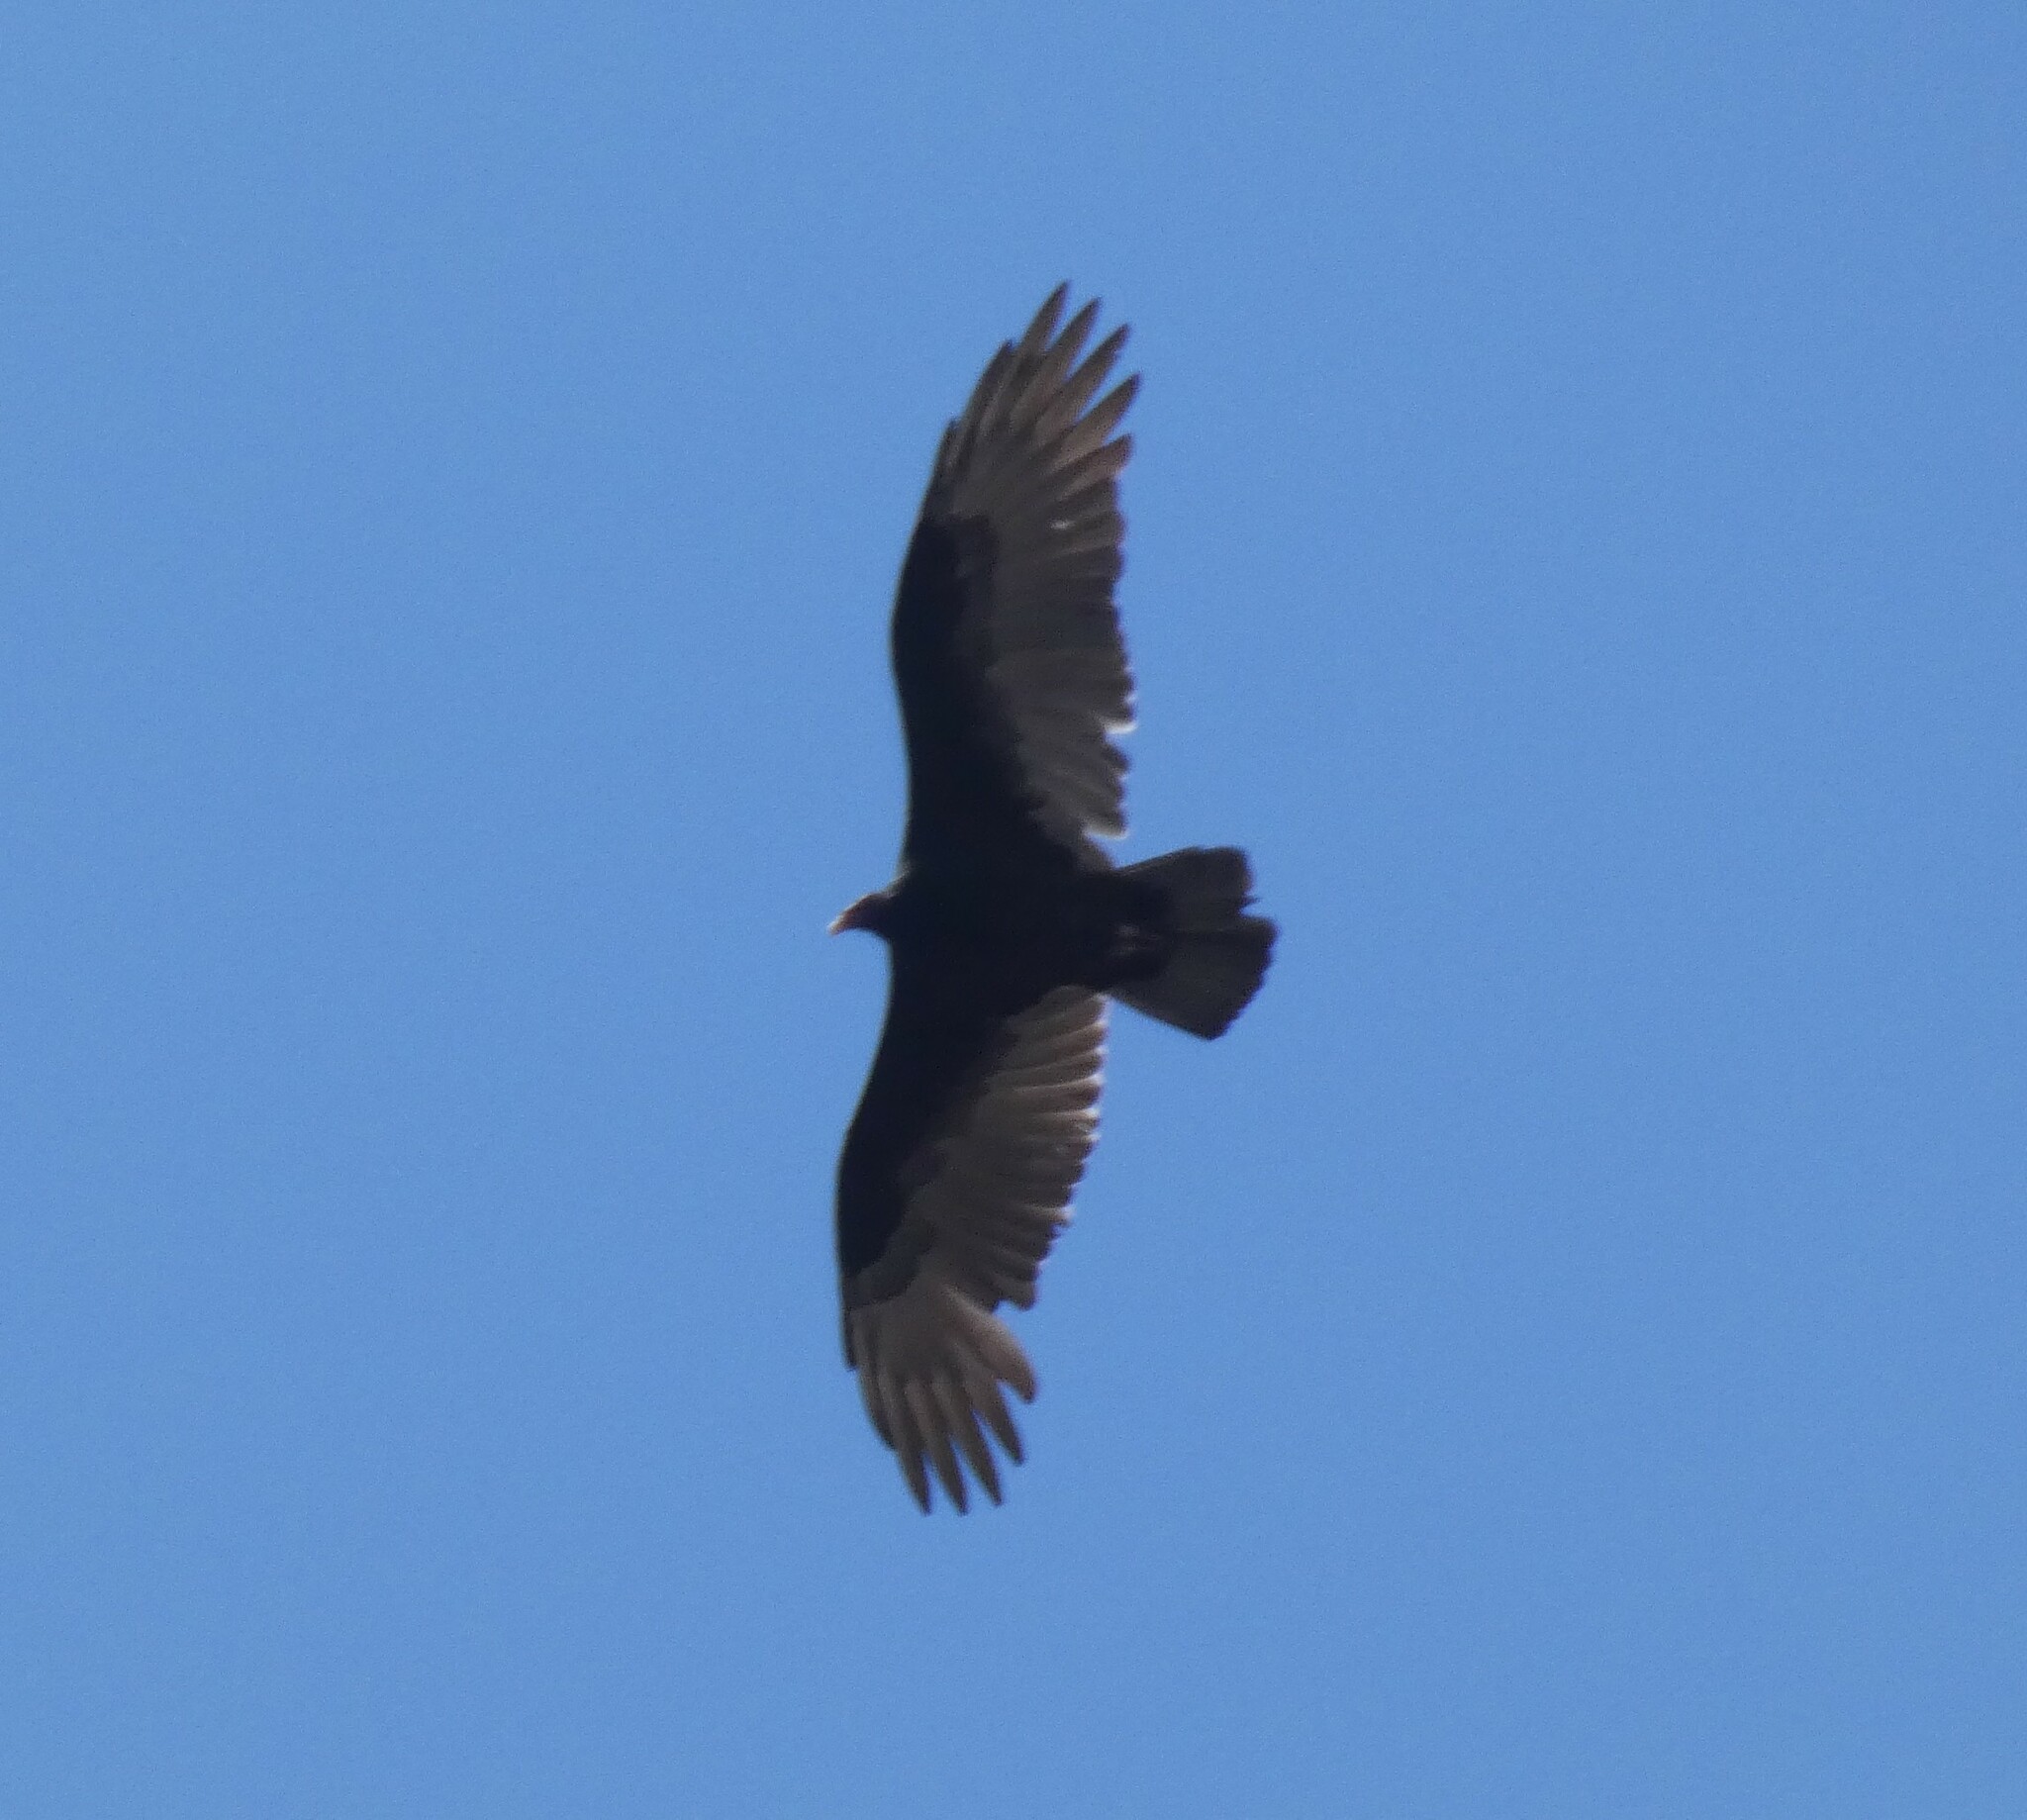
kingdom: Animalia
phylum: Chordata
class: Aves
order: Accipitriformes
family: Cathartidae
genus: Cathartes
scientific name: Cathartes aura
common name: Turkey vulture
